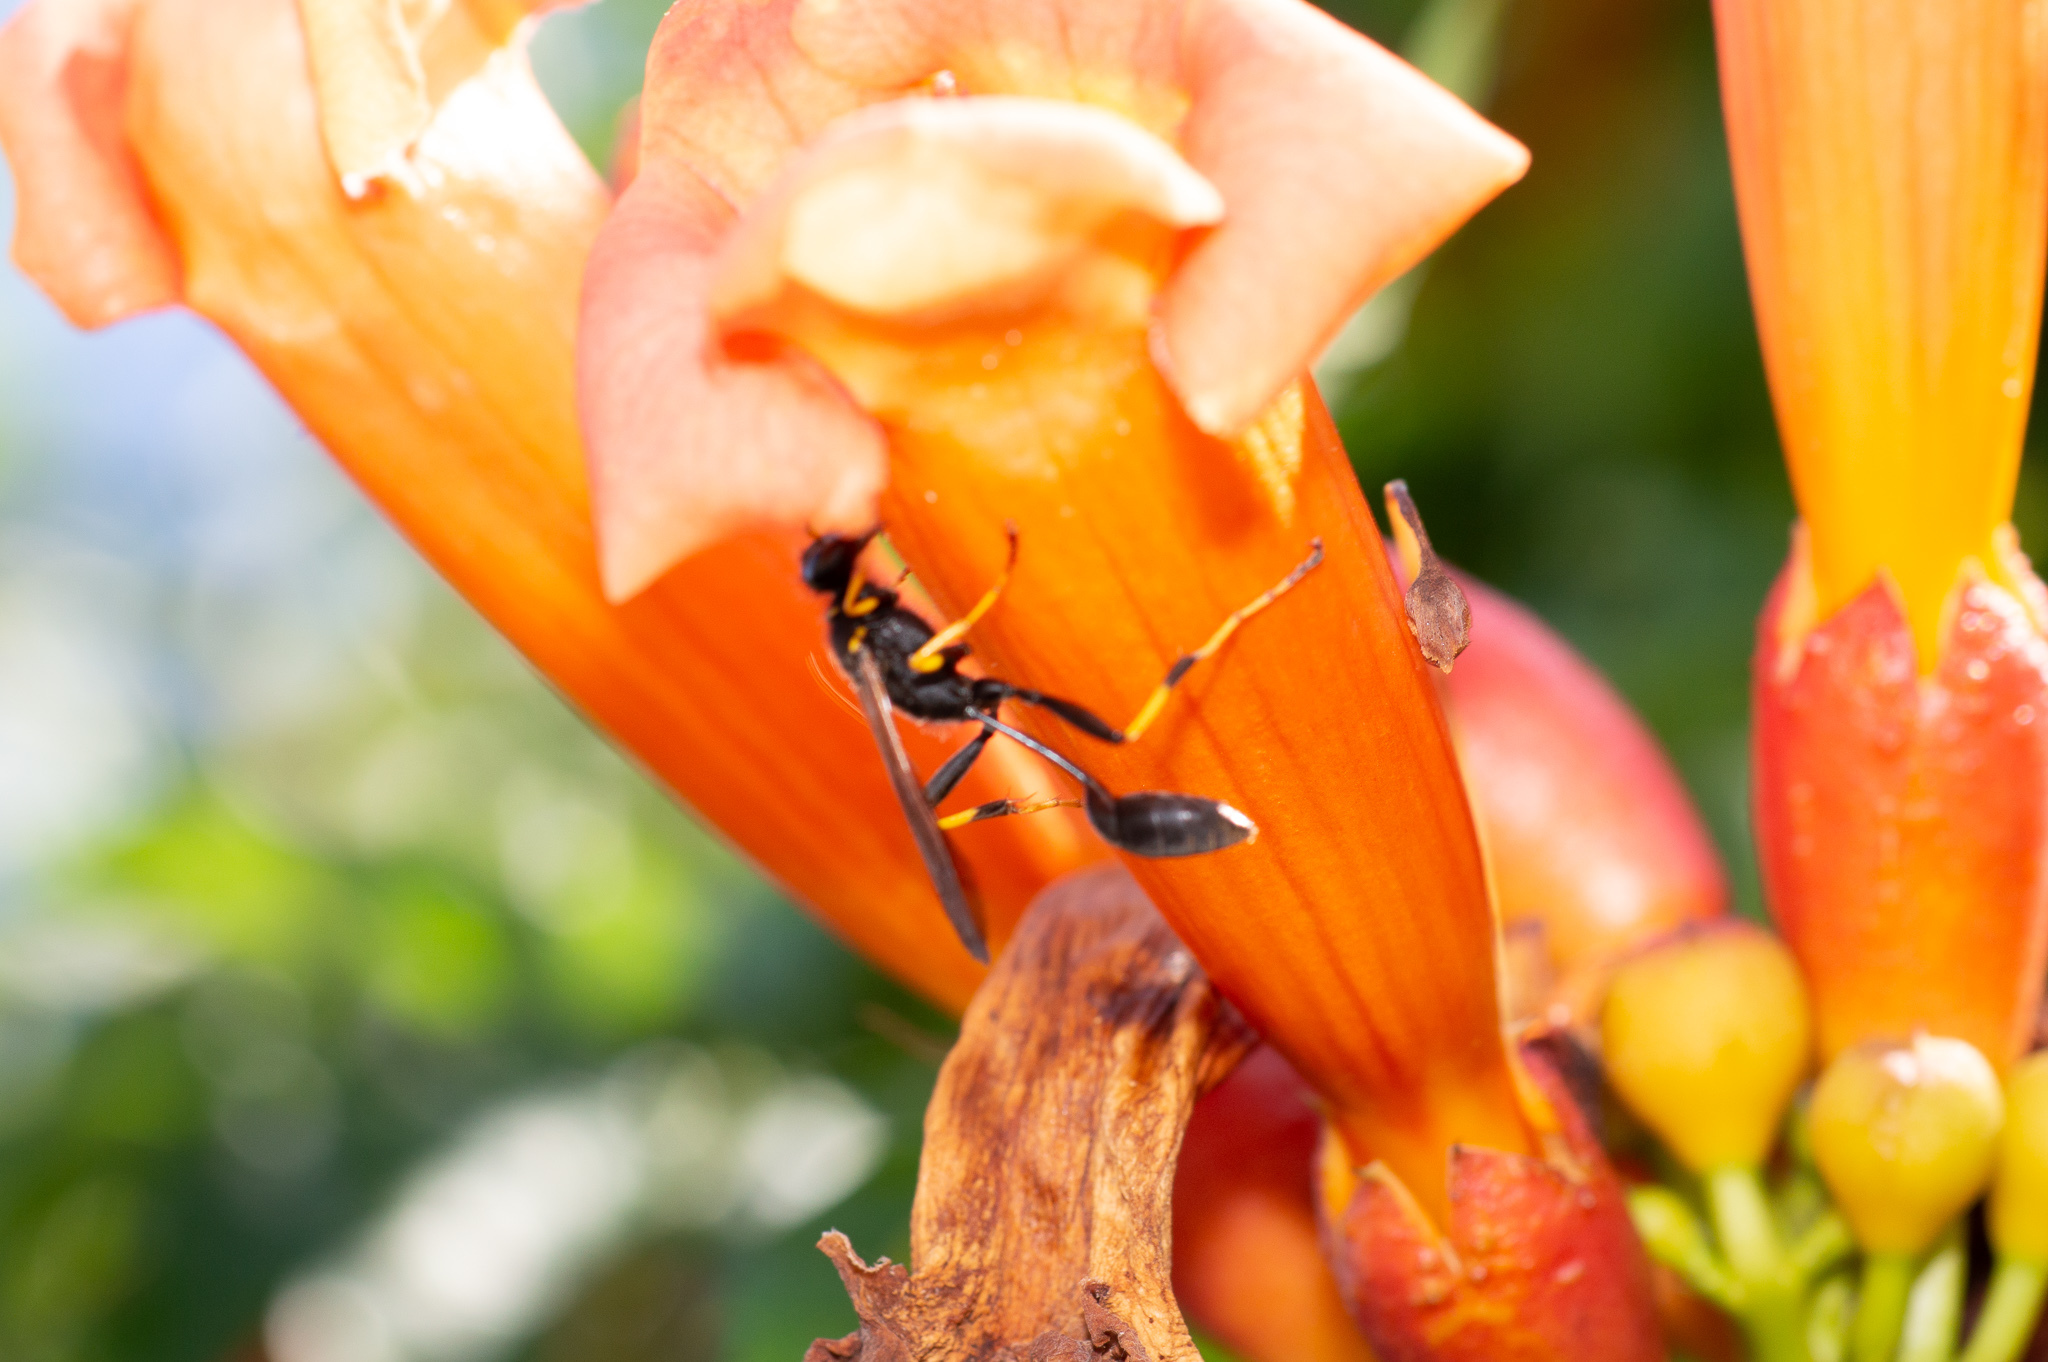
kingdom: Animalia
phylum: Arthropoda
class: Insecta
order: Hymenoptera
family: Sphecidae
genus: Sceliphron
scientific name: Sceliphron caementarium
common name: Mud dauber
